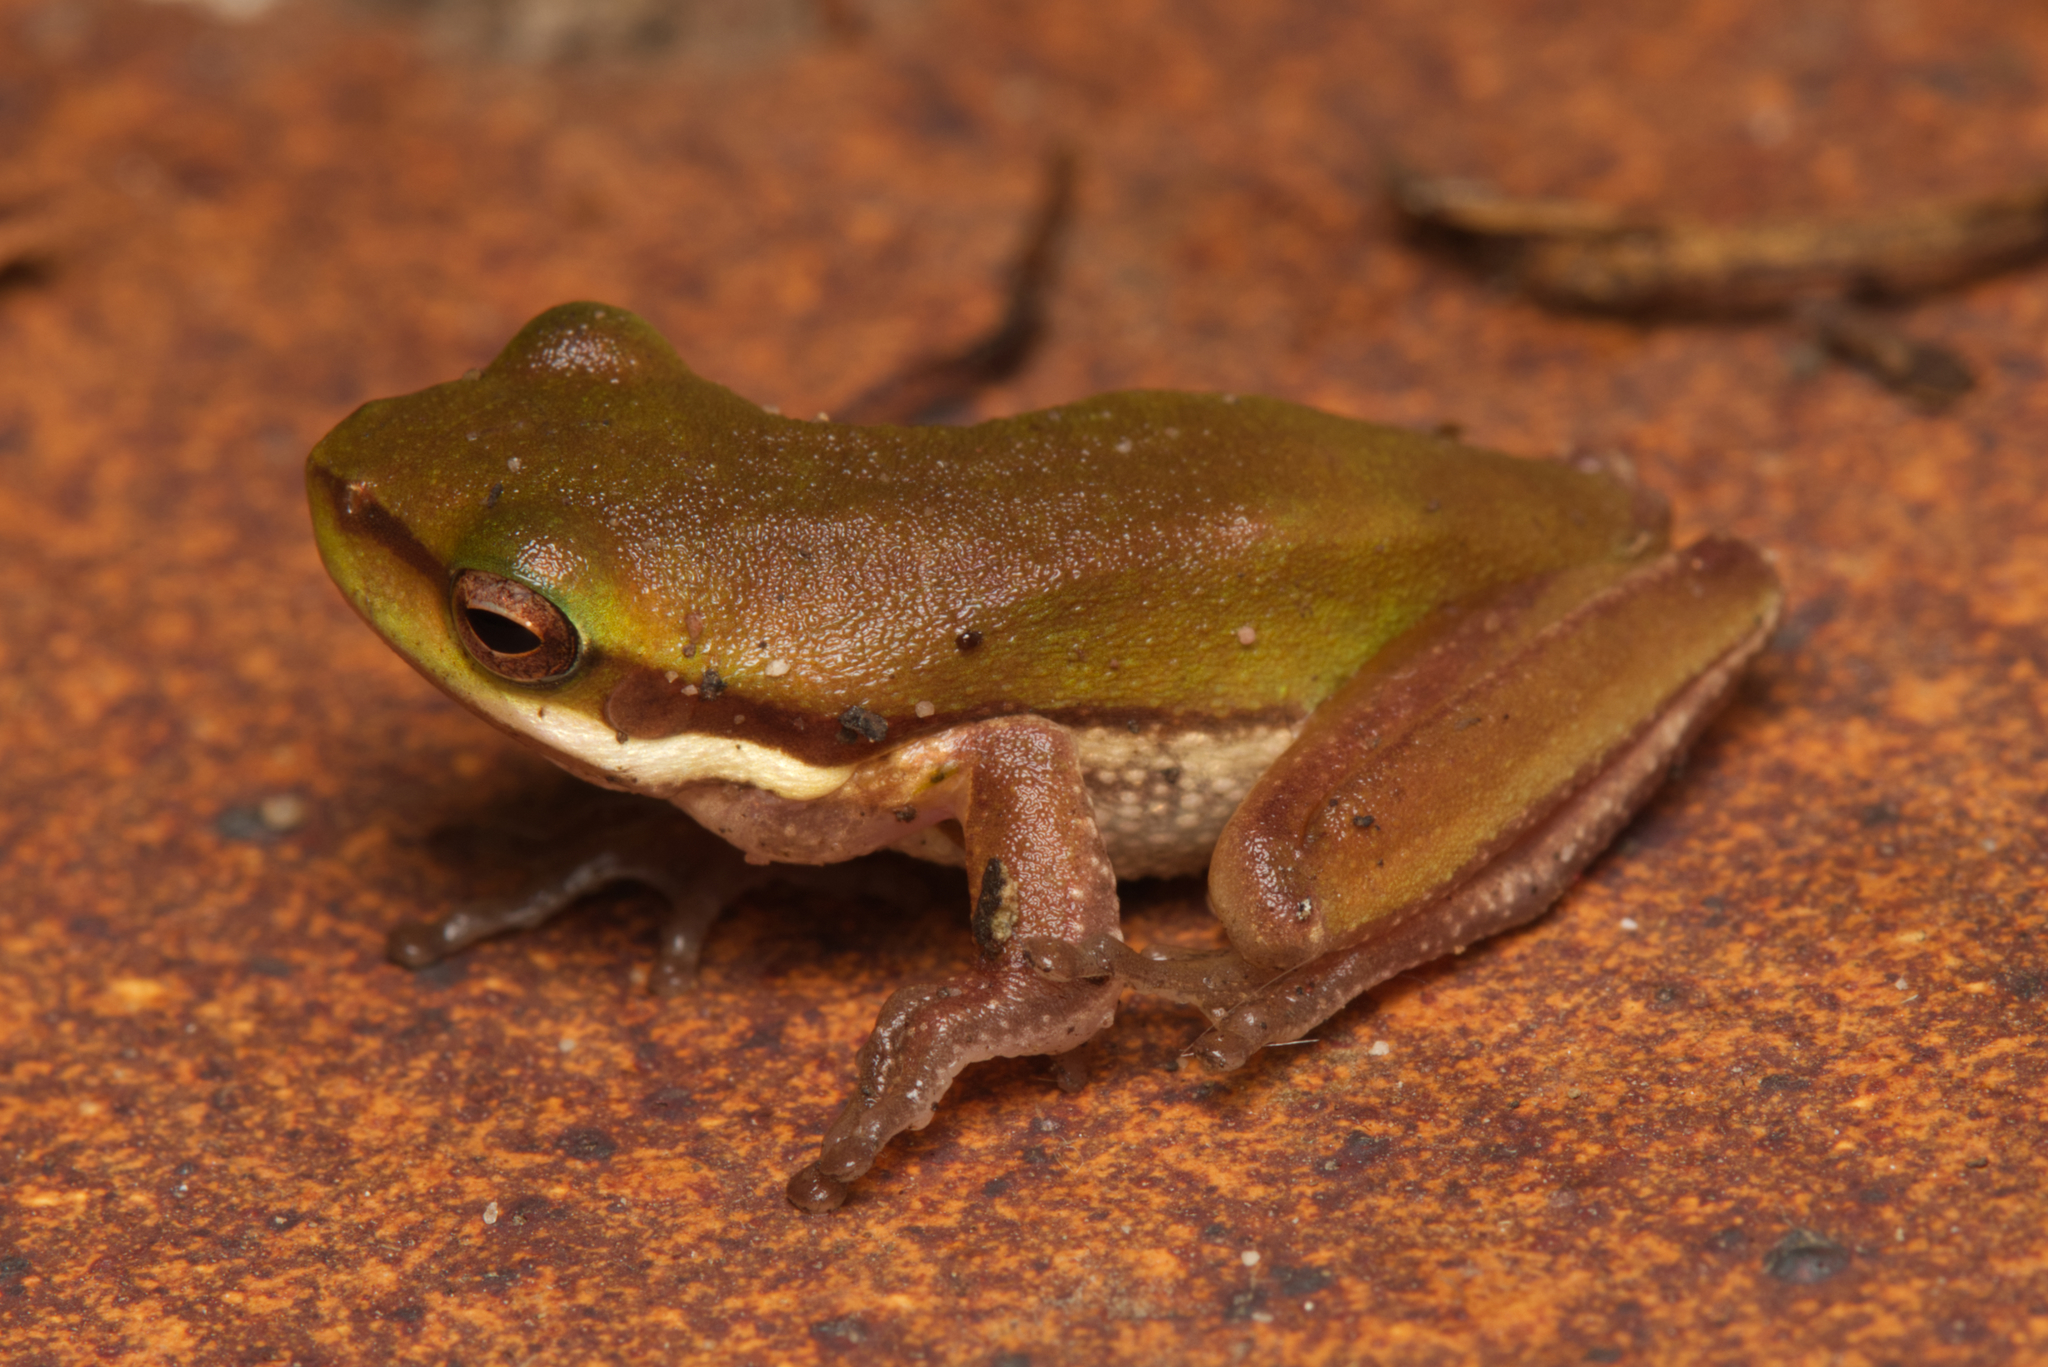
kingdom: Animalia
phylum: Chordata
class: Amphibia
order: Anura
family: Pelodryadidae
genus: Litoria
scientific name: Litoria fallax
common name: Eastern dwarf treefrog
